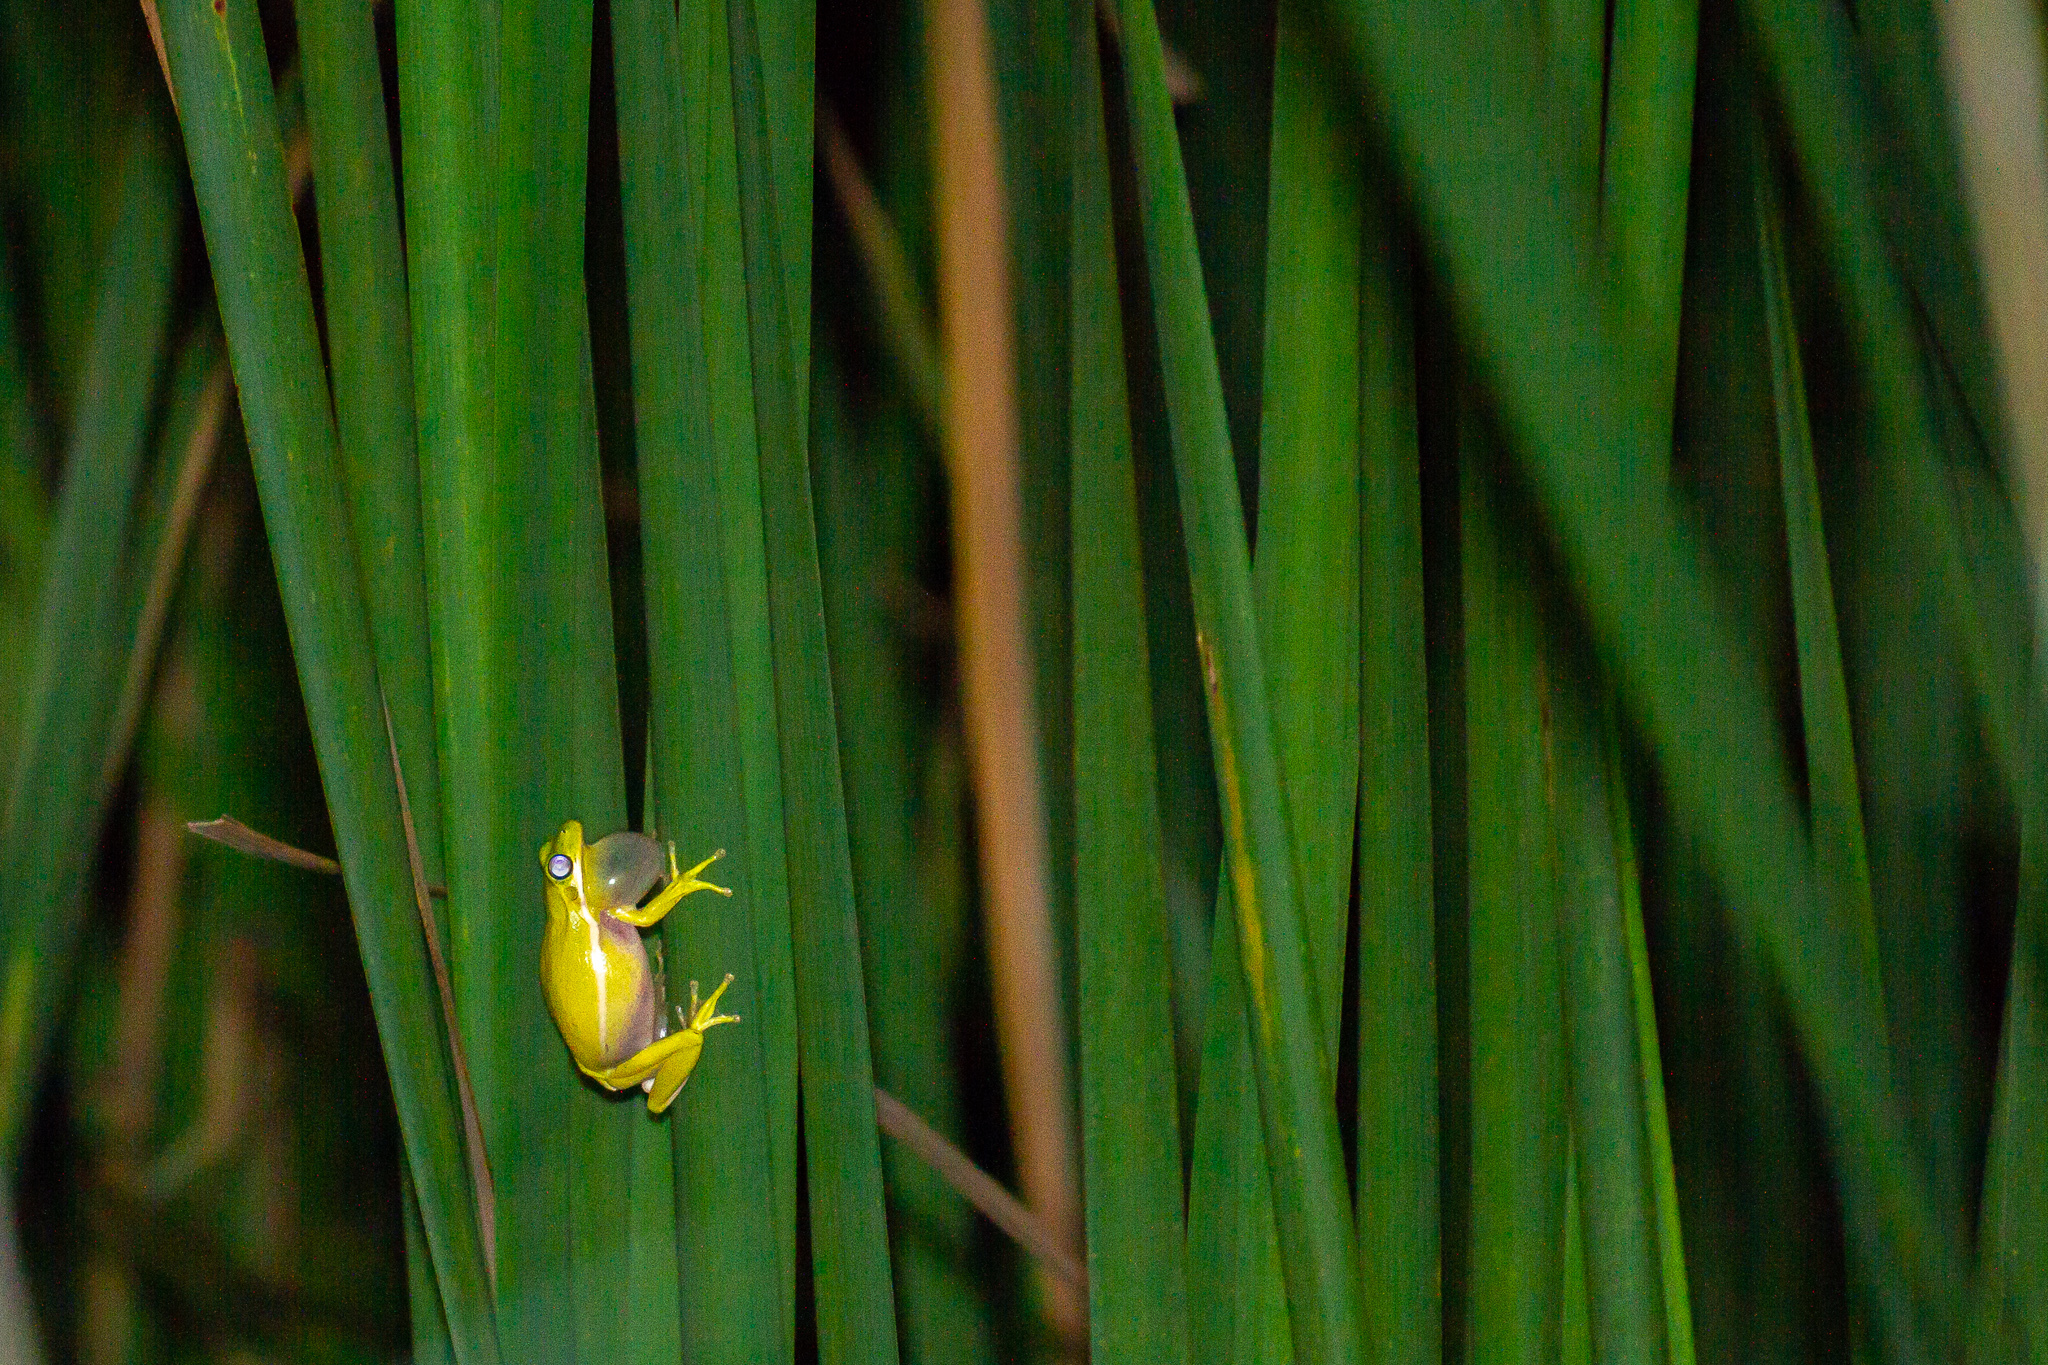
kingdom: Animalia
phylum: Chordata
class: Amphibia
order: Anura
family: Hylidae
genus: Dryophytes
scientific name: Dryophytes cinereus
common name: Green treefrog
